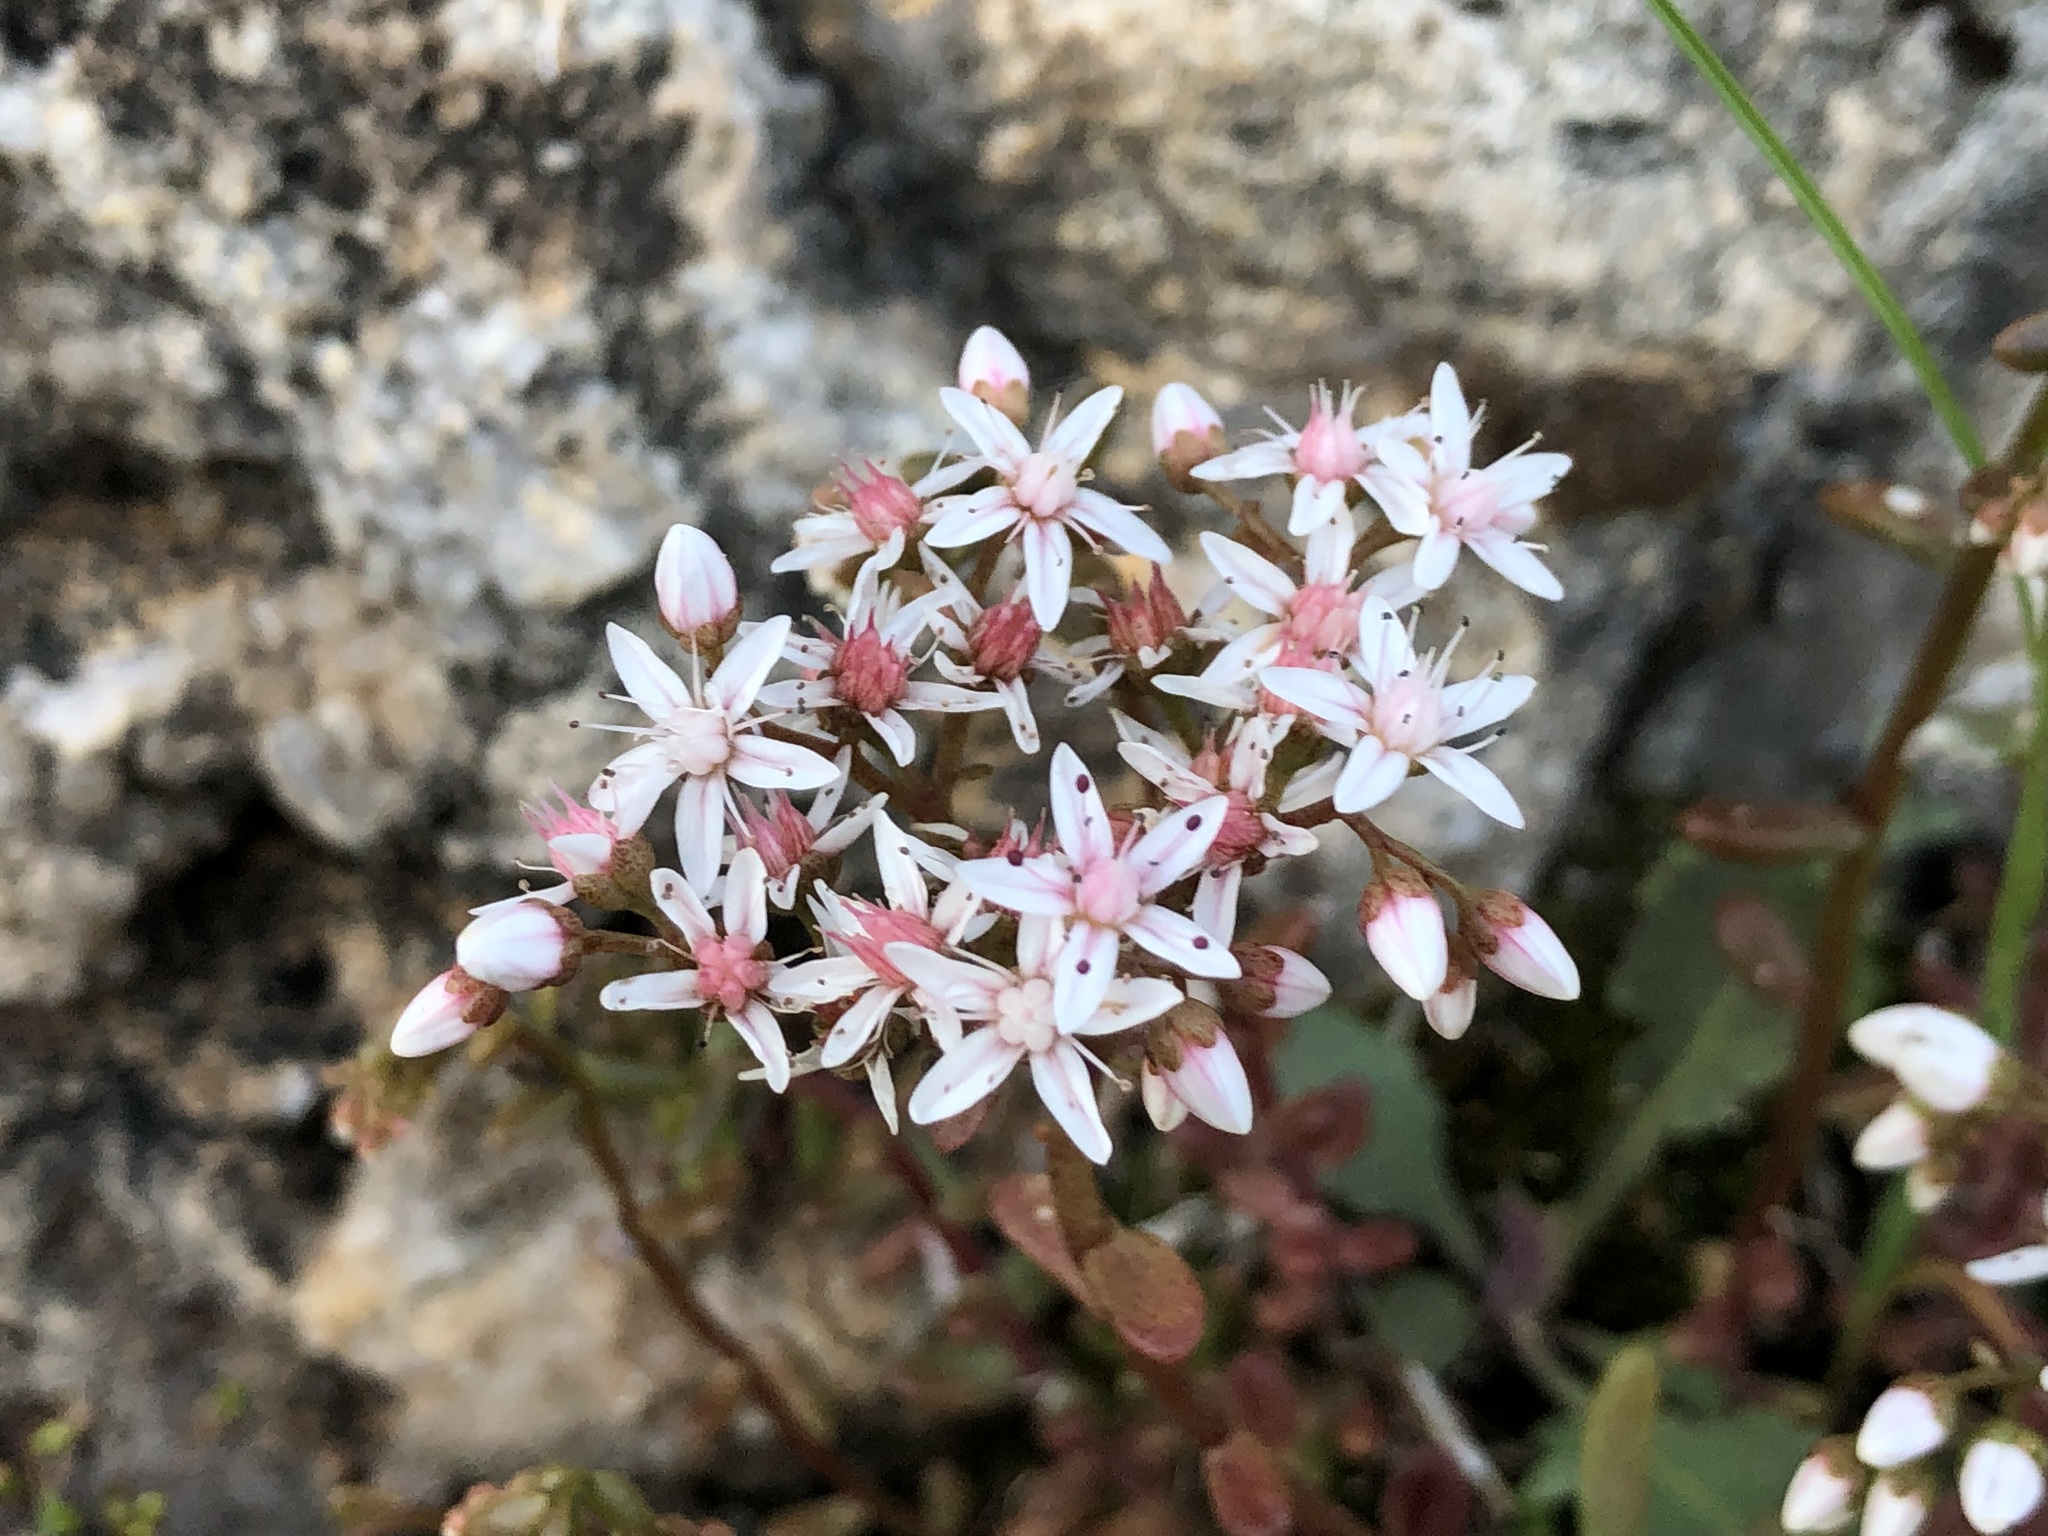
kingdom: Plantae
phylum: Tracheophyta
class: Magnoliopsida
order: Saxifragales
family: Crassulaceae
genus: Sedum
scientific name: Sedum album
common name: White stonecrop
